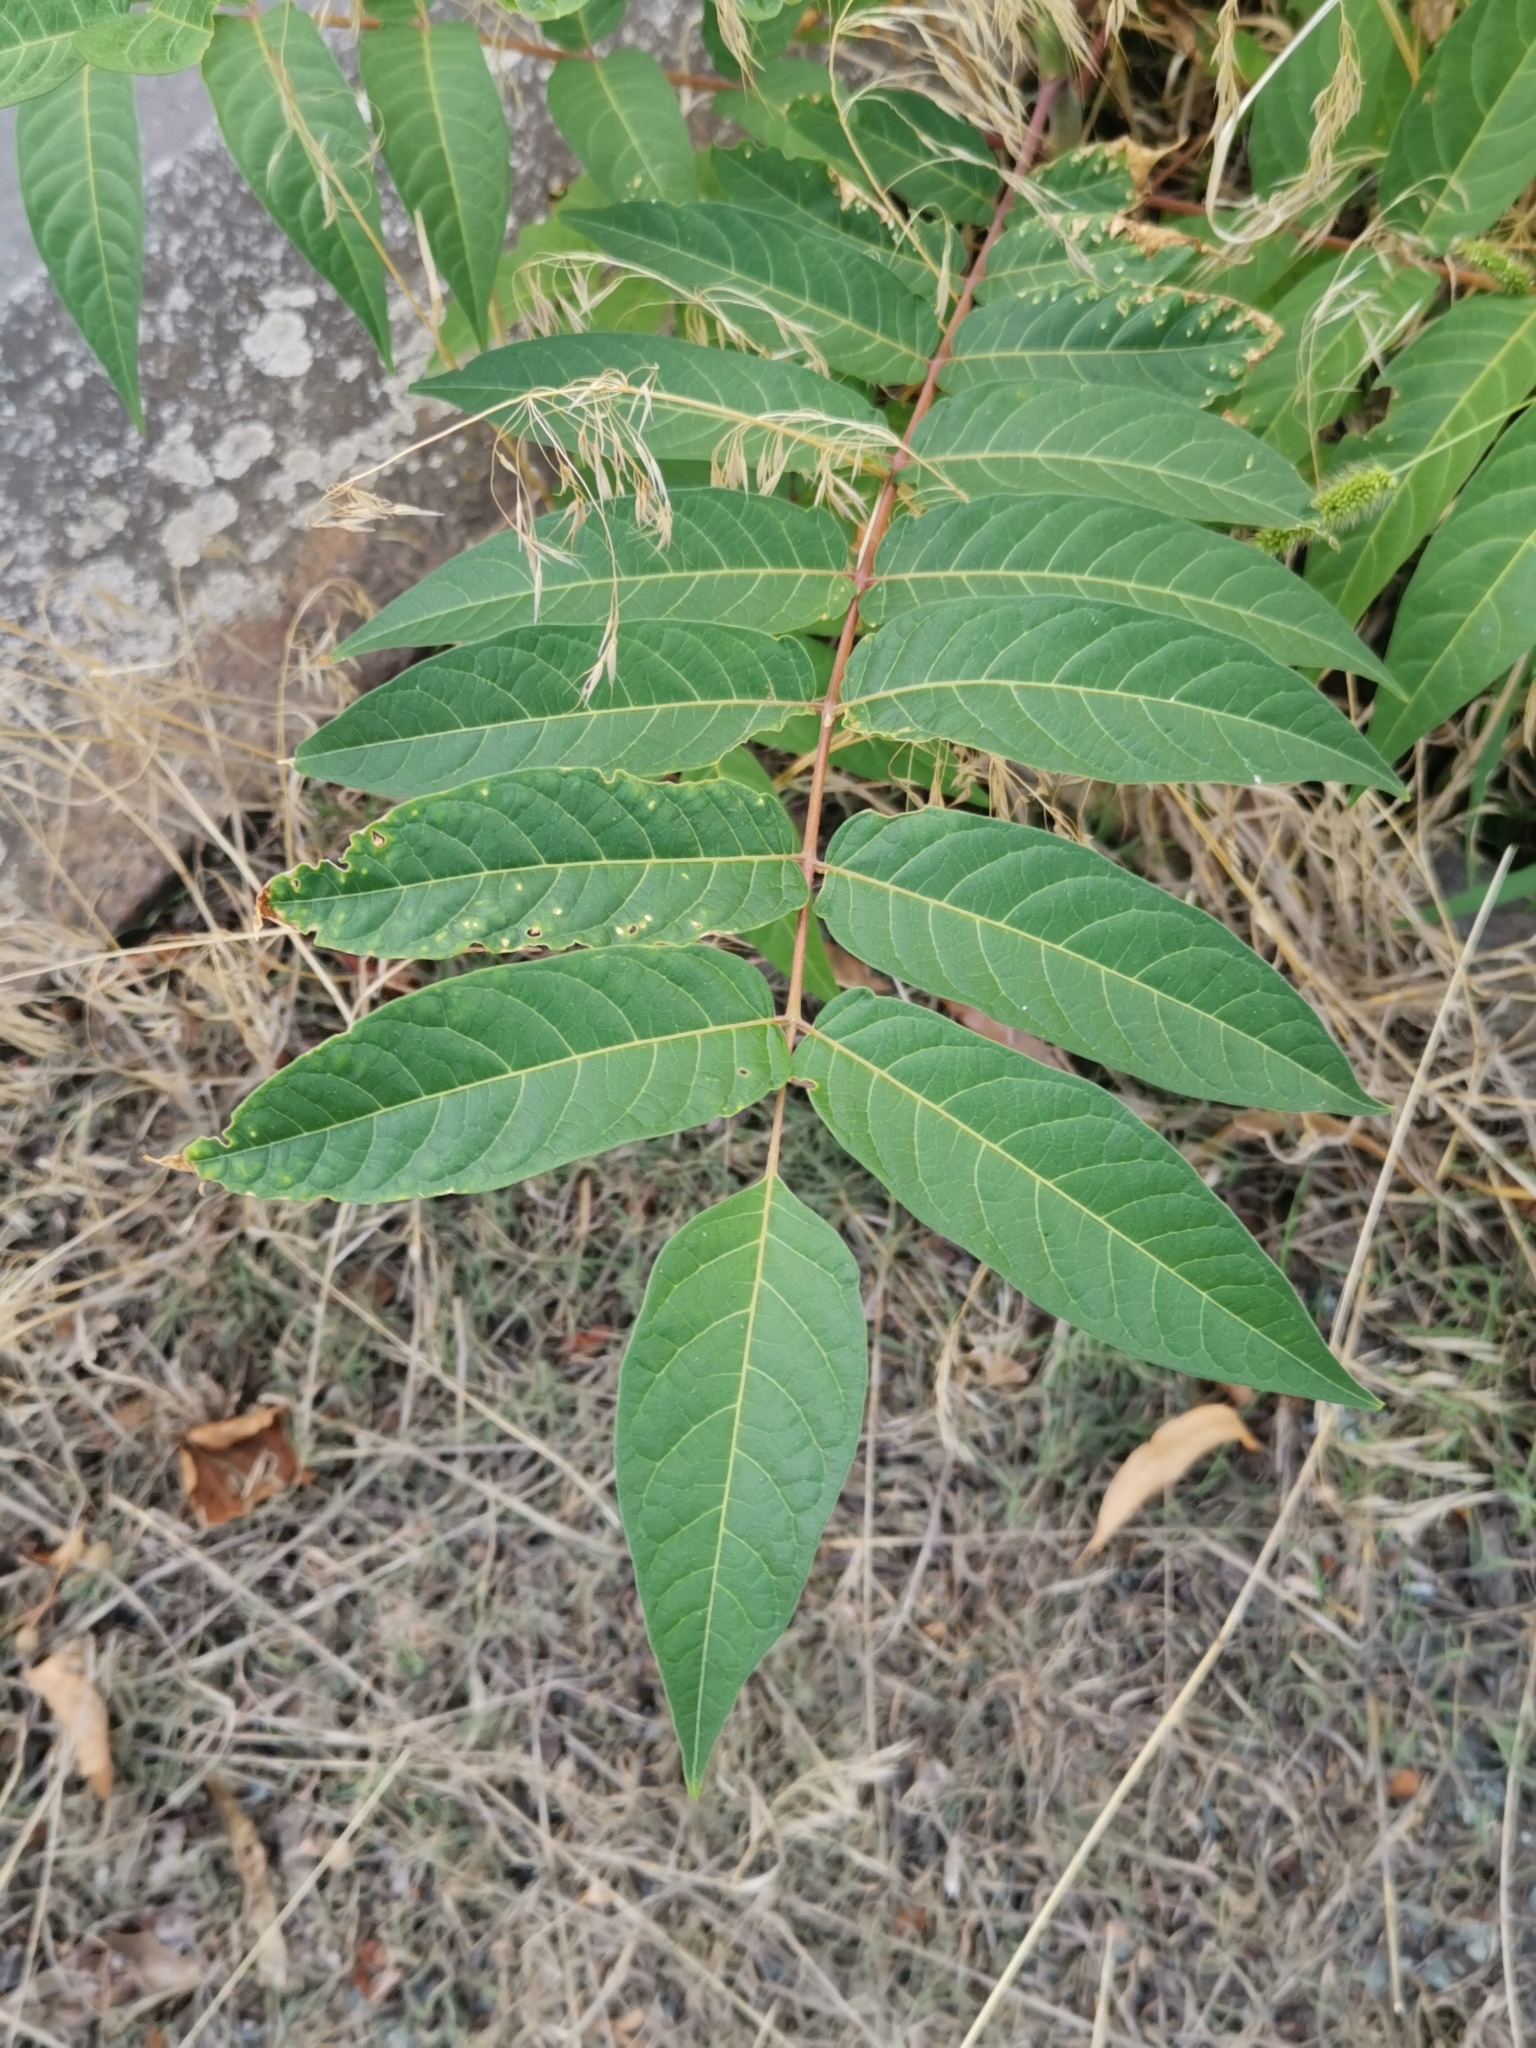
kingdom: Plantae
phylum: Tracheophyta
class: Magnoliopsida
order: Sapindales
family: Simaroubaceae
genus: Ailanthus
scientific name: Ailanthus altissima
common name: Tree-of-heaven
